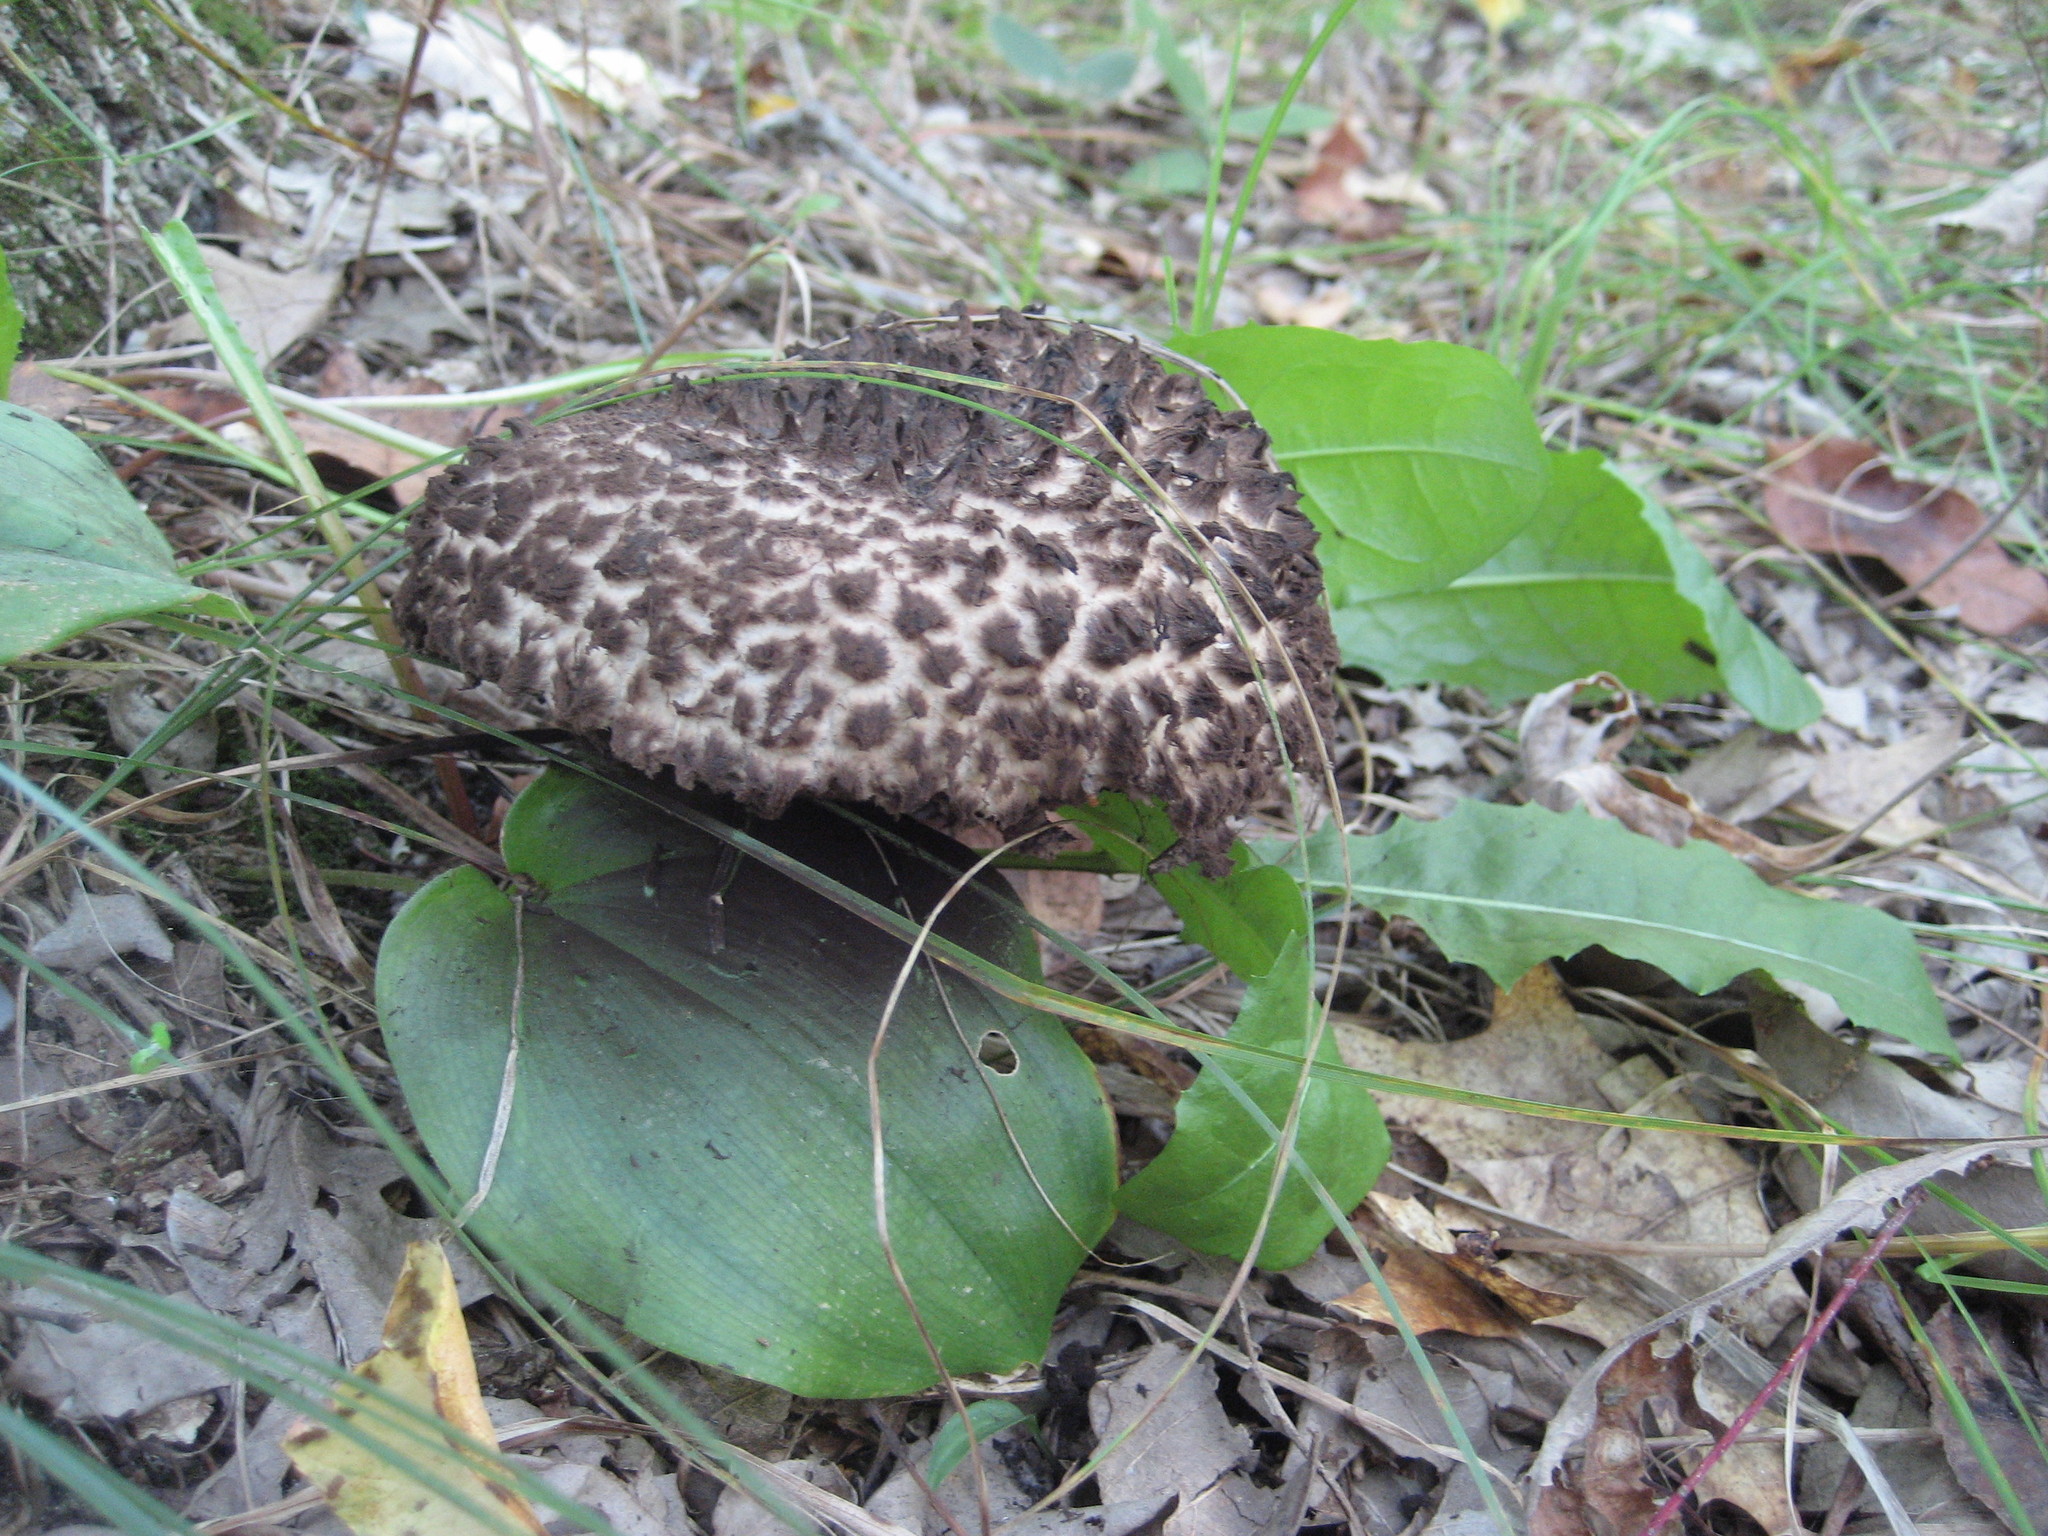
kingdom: Fungi
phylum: Basidiomycota
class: Agaricomycetes
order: Boletales
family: Boletaceae
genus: Strobilomyces
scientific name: Strobilomyces strobilaceus
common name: Old man of the woods
